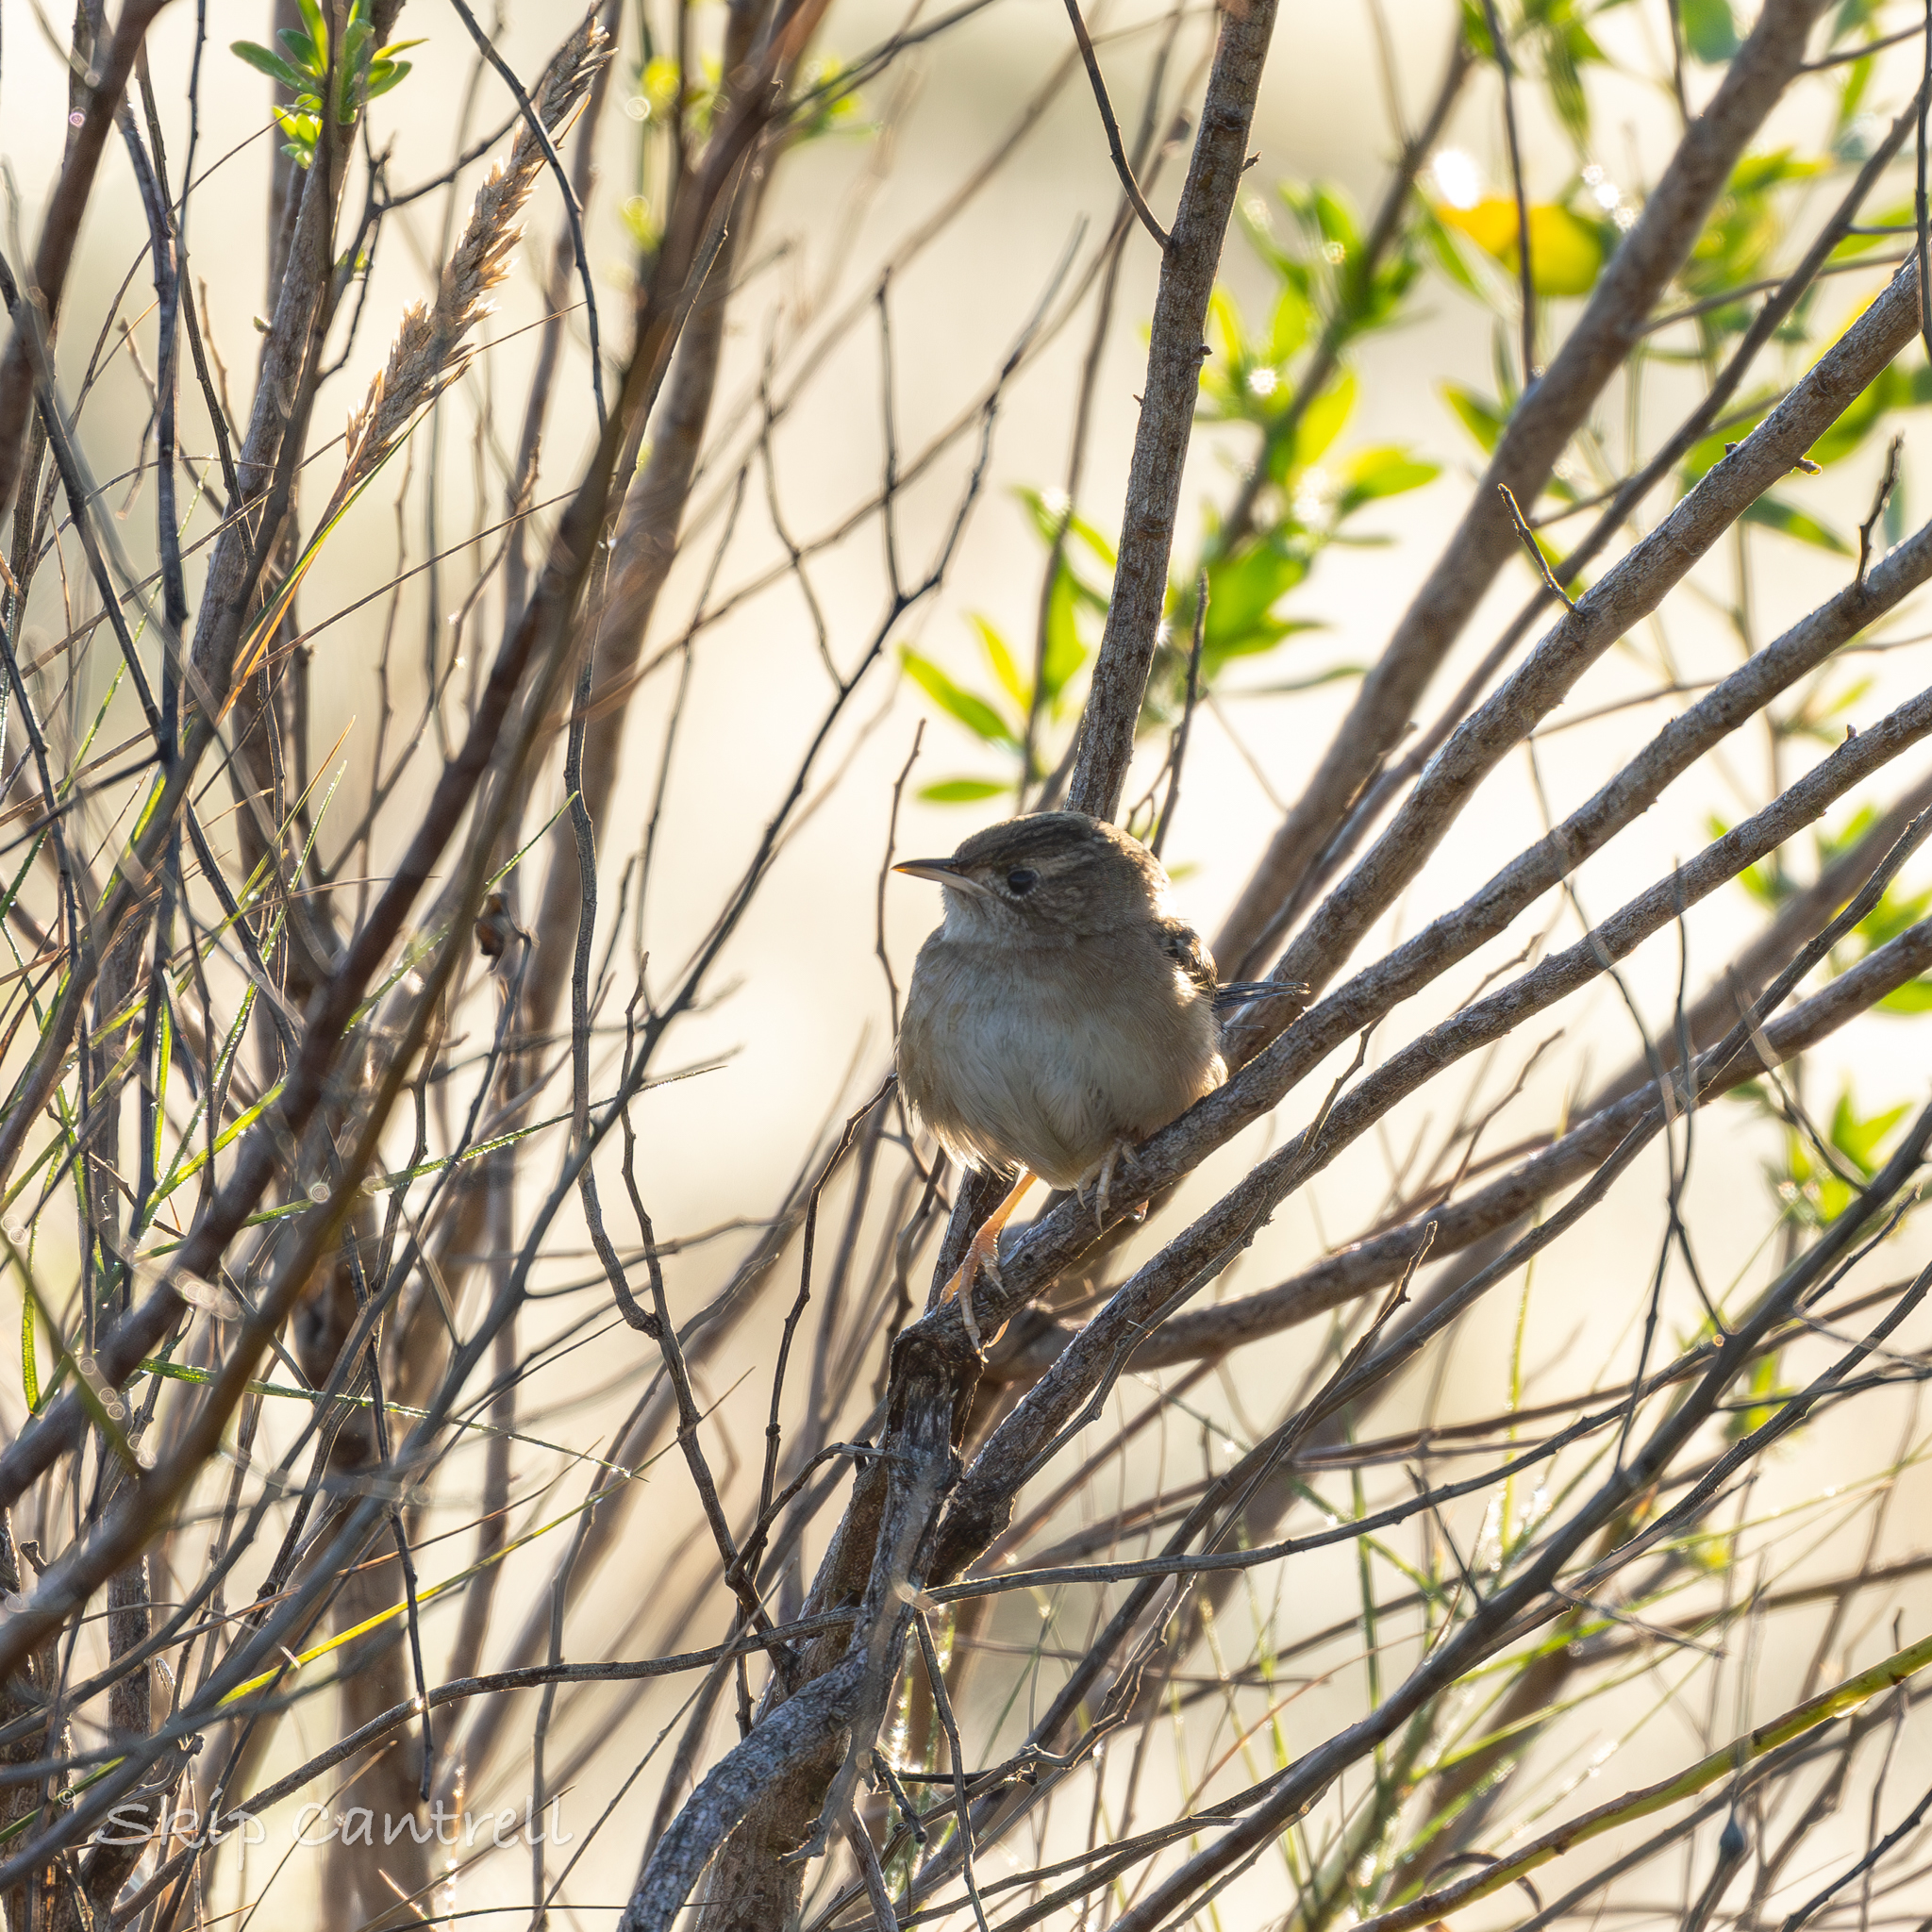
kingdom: Animalia
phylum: Chordata
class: Aves
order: Passeriformes
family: Troglodytidae
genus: Cistothorus
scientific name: Cistothorus platensis
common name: Sedge wren
